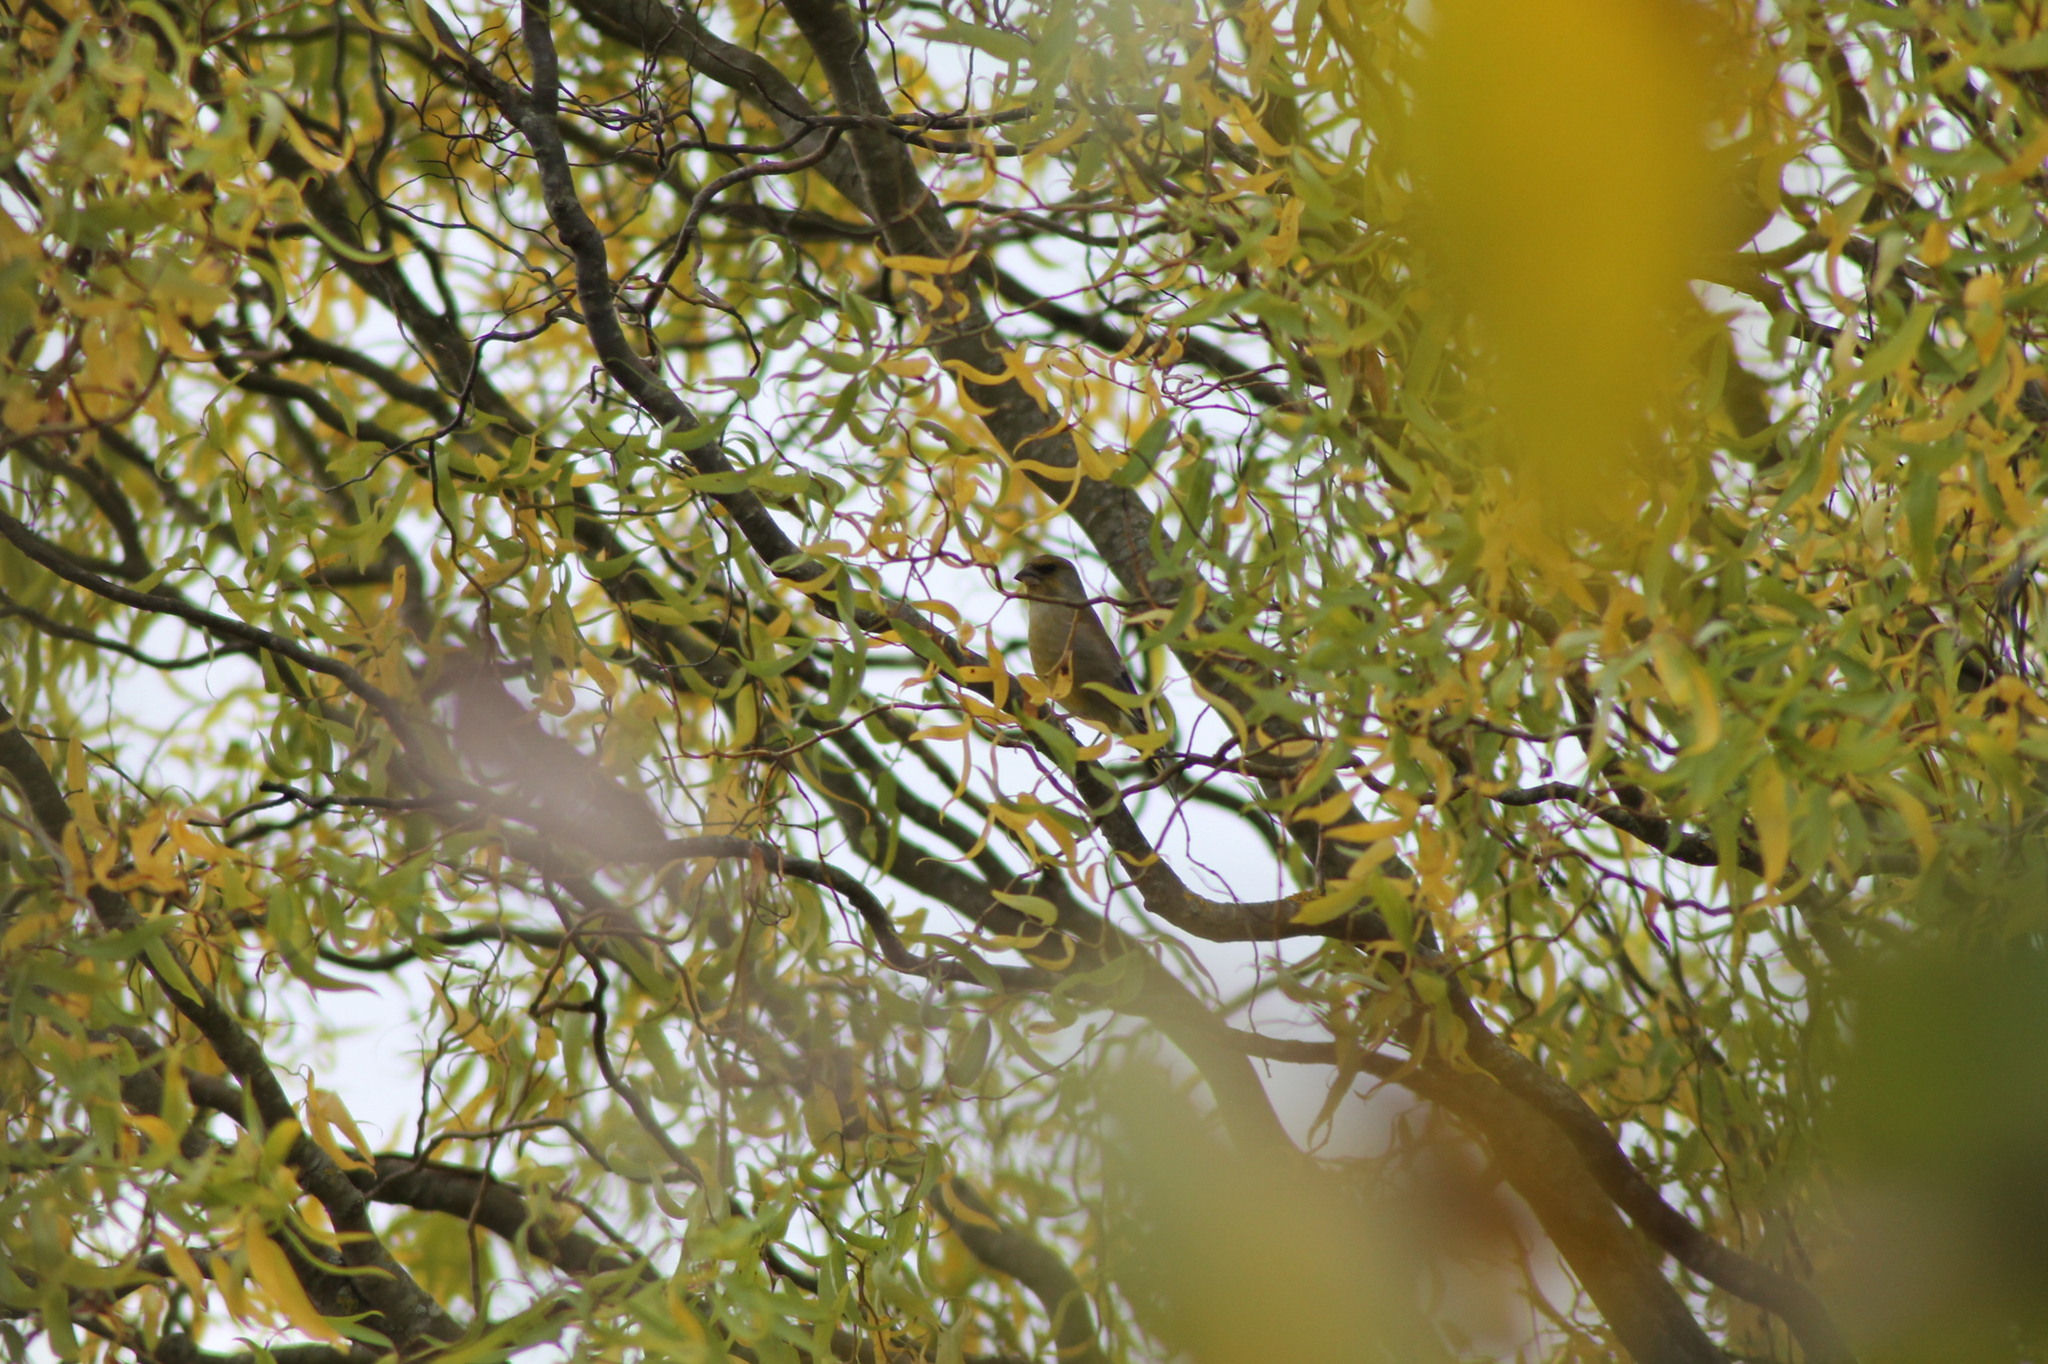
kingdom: Plantae
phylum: Tracheophyta
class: Liliopsida
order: Poales
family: Poaceae
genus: Chloris
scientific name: Chloris chloris
